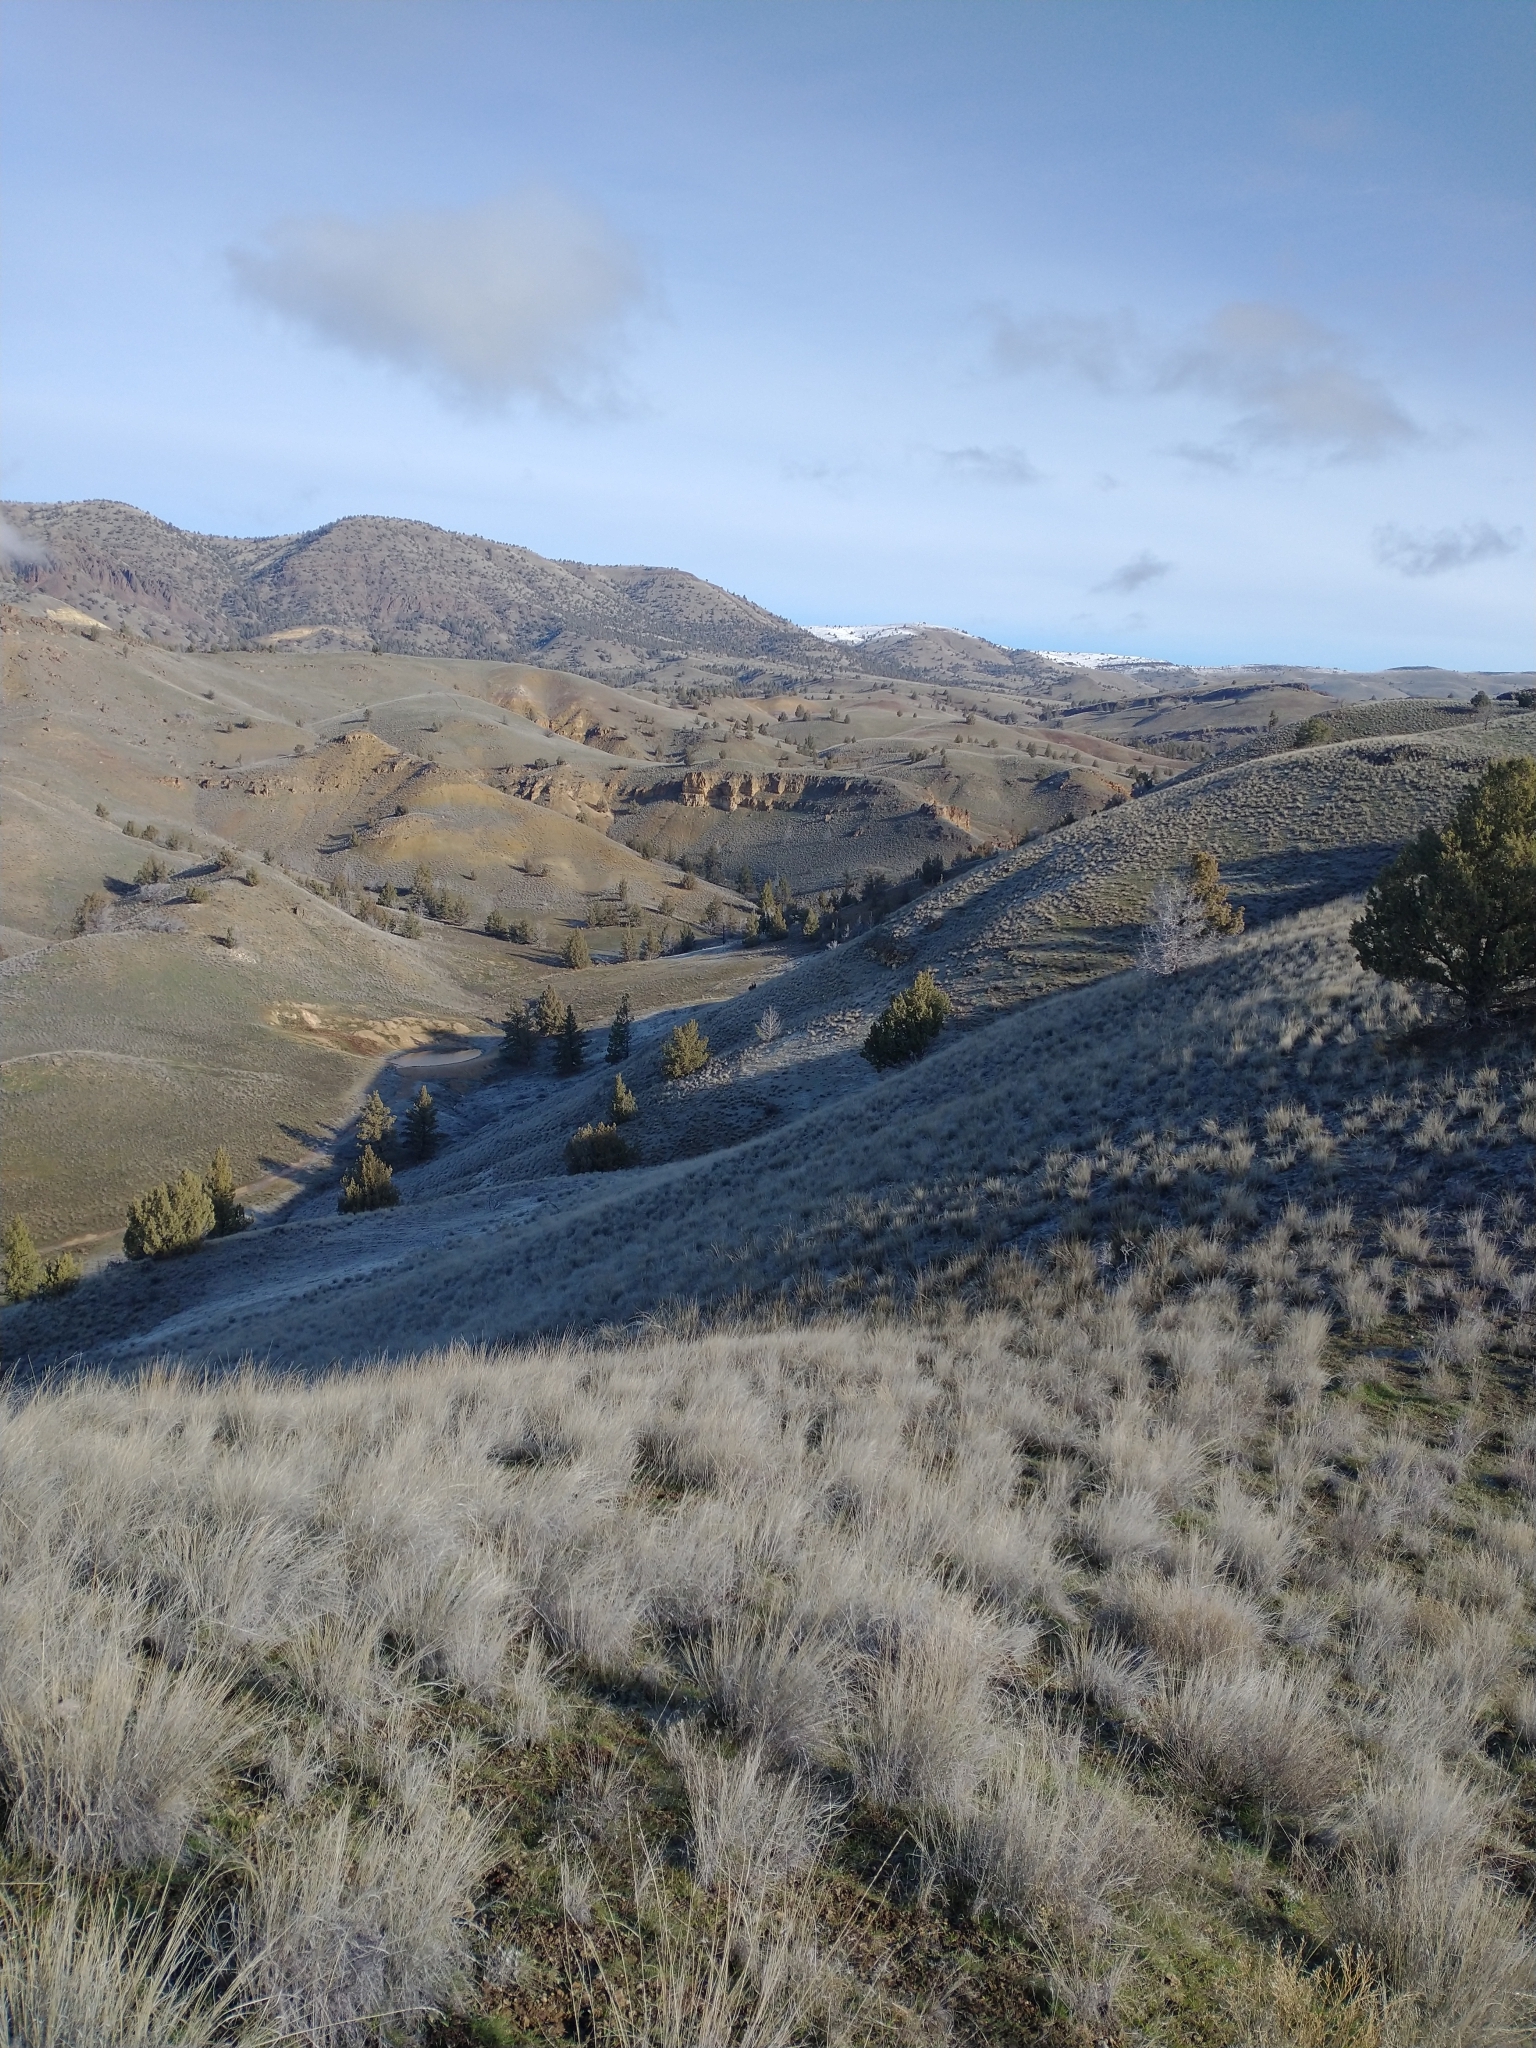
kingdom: Plantae
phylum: Tracheophyta
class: Pinopsida
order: Pinales
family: Cupressaceae
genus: Juniperus
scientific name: Juniperus occidentalis
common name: Western juniper
